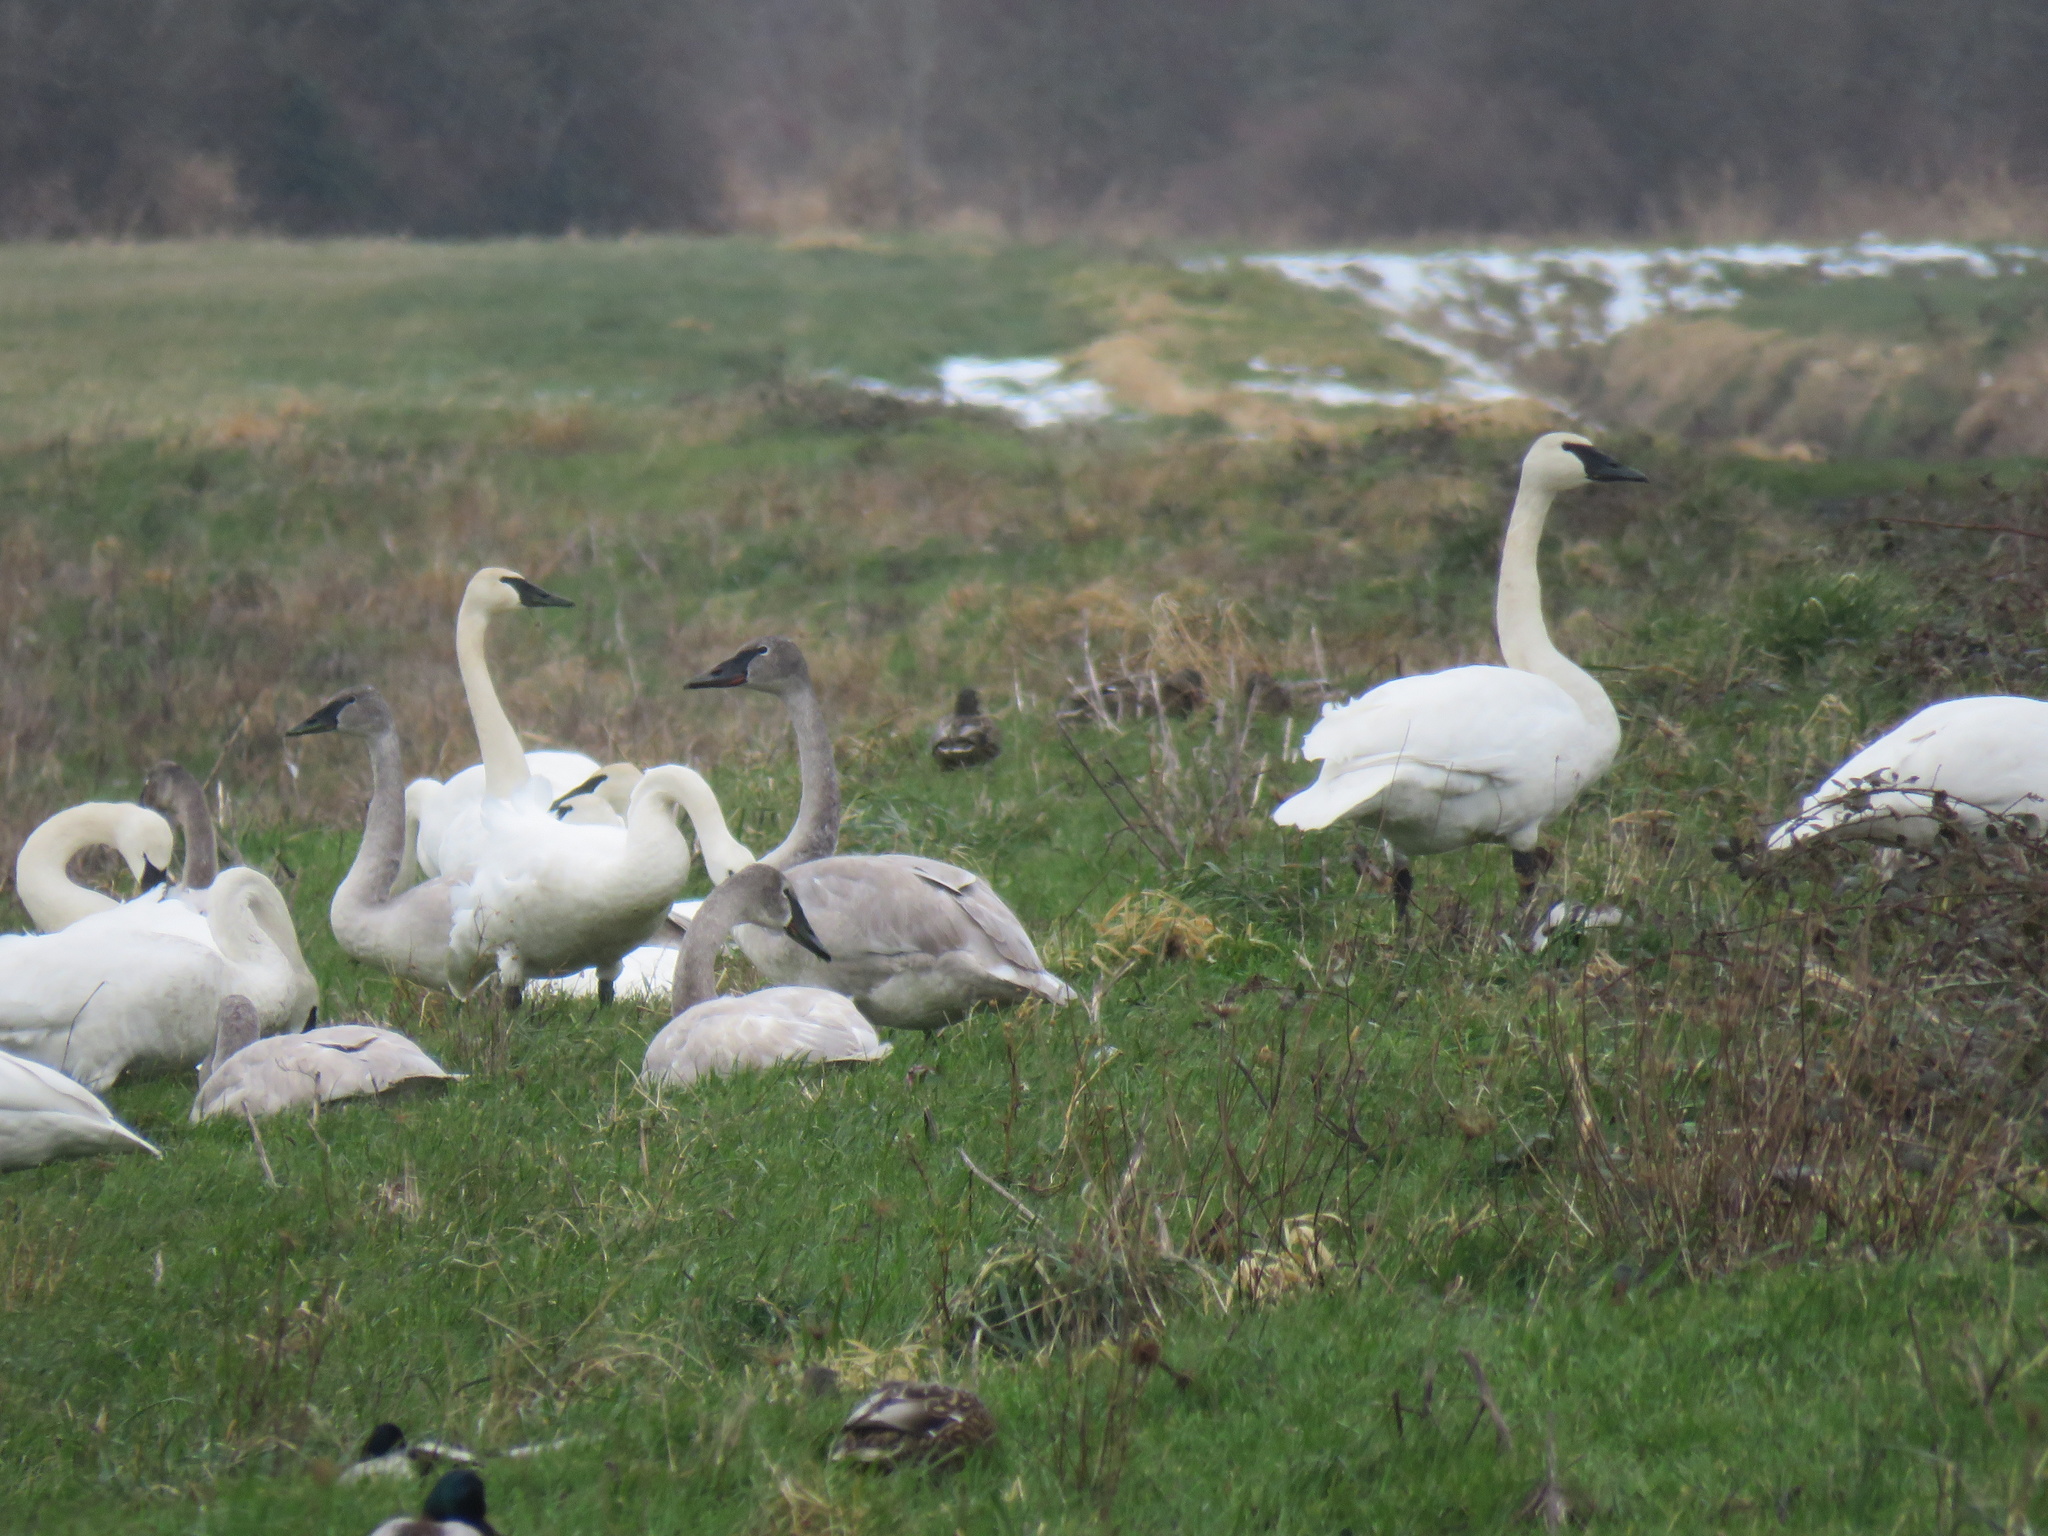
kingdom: Animalia
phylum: Chordata
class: Aves
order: Anseriformes
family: Anatidae
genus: Cygnus
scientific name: Cygnus buccinator
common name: Trumpeter swan
